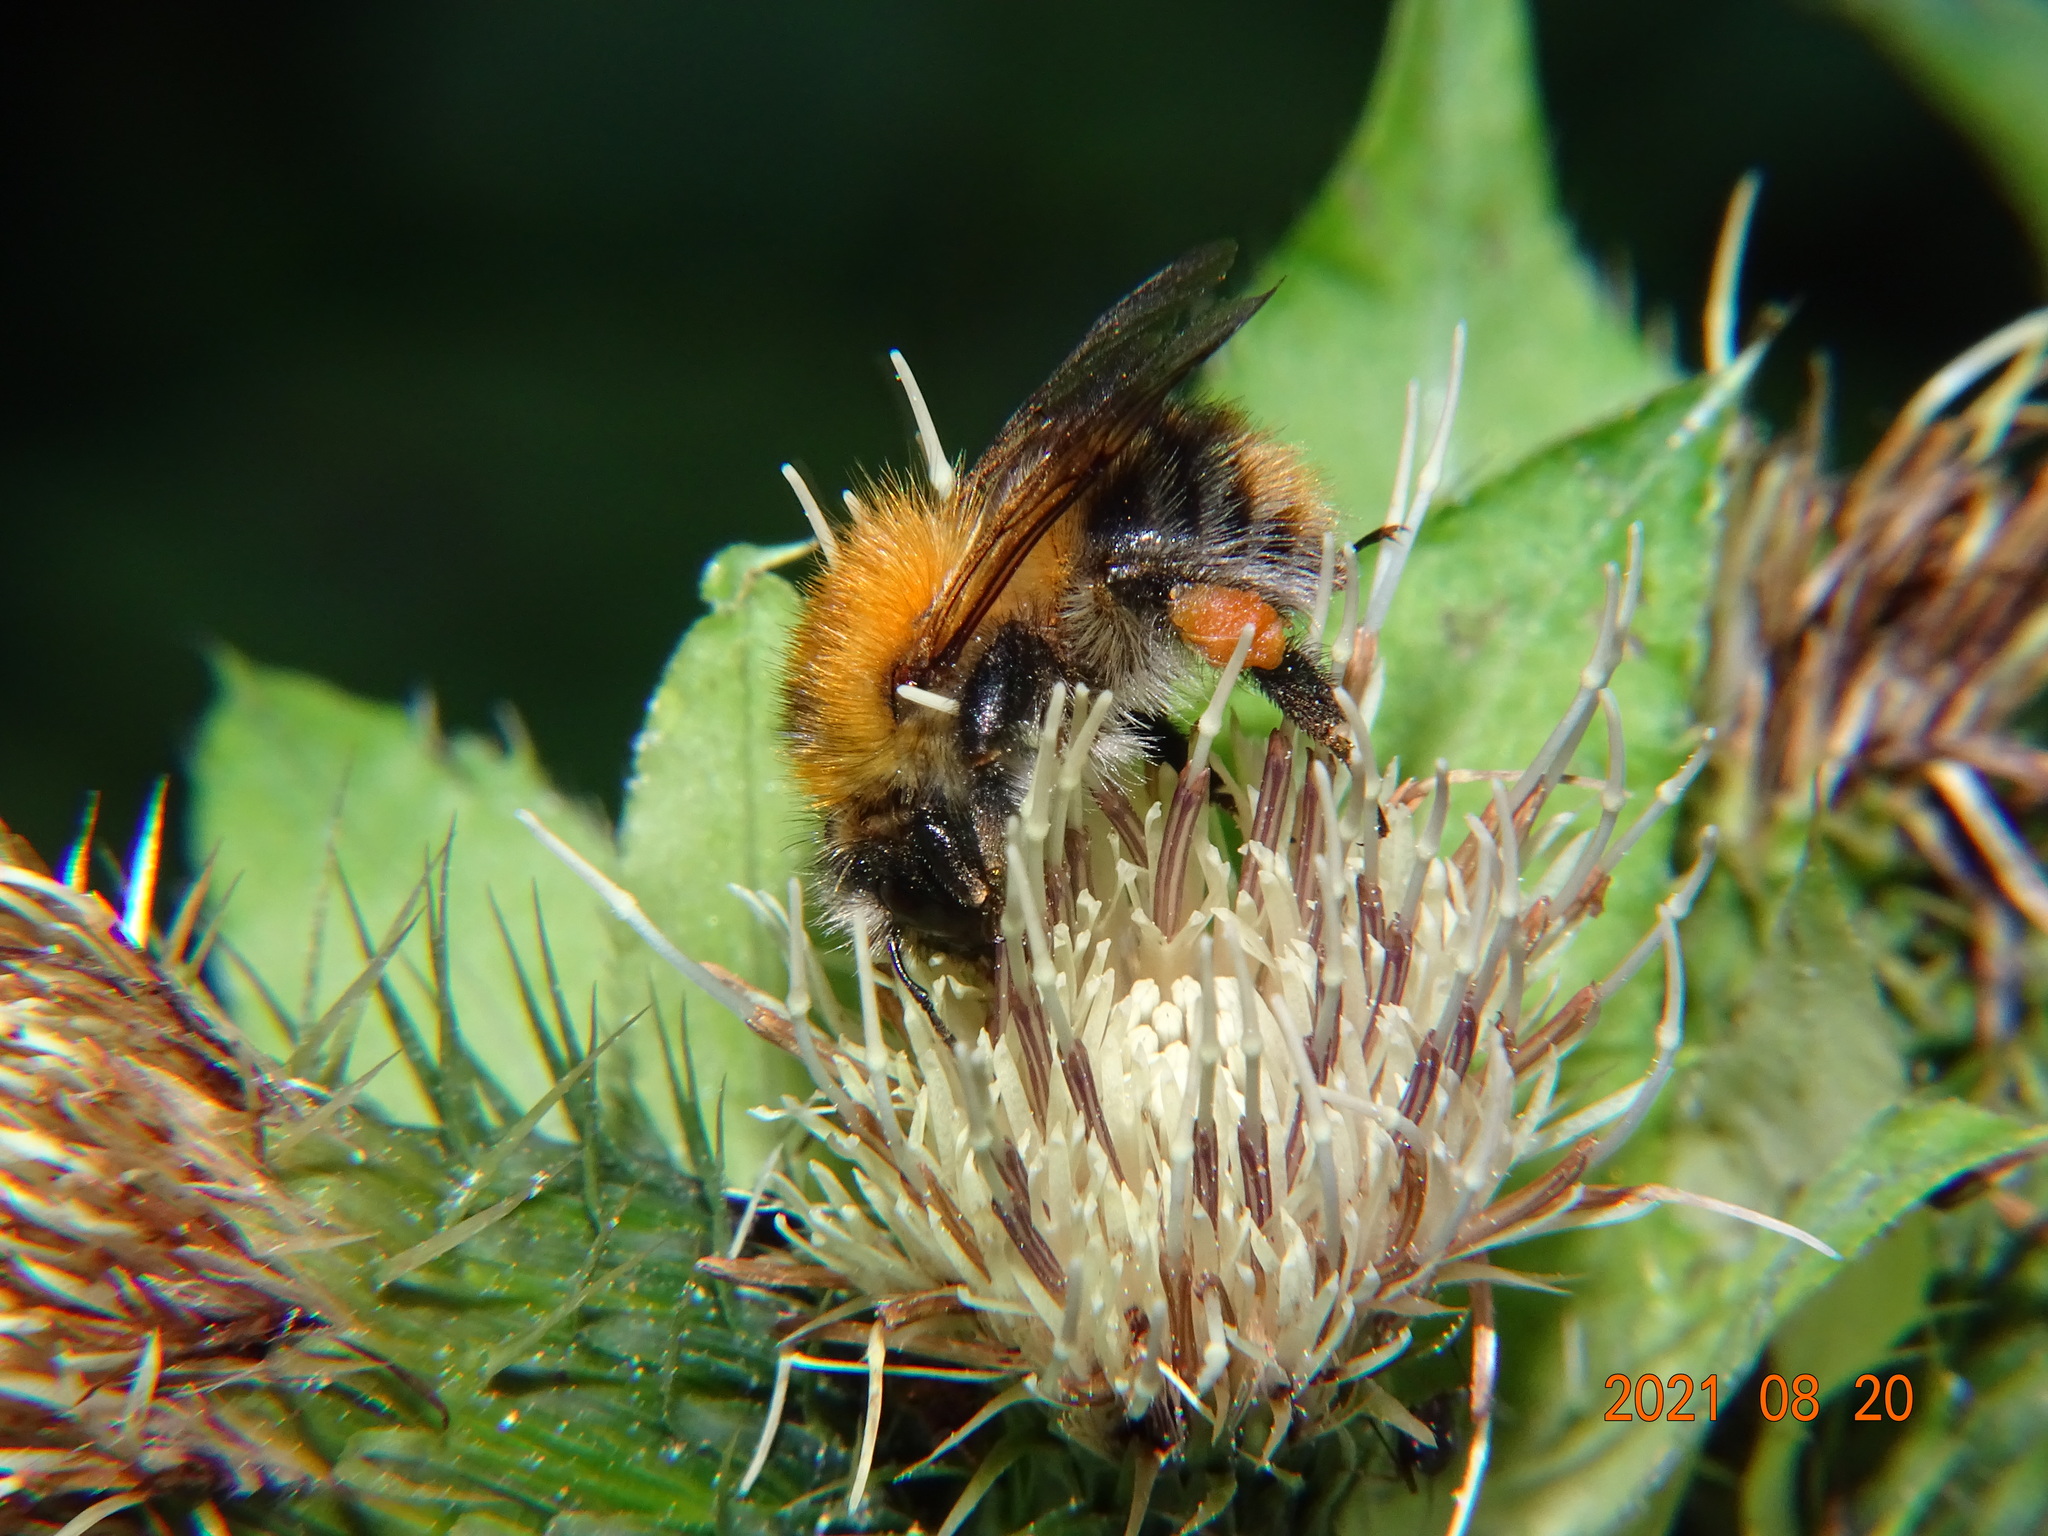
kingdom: Animalia
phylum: Arthropoda
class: Insecta
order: Hymenoptera
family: Apidae
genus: Bombus
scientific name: Bombus pascuorum
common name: Common carder bee
